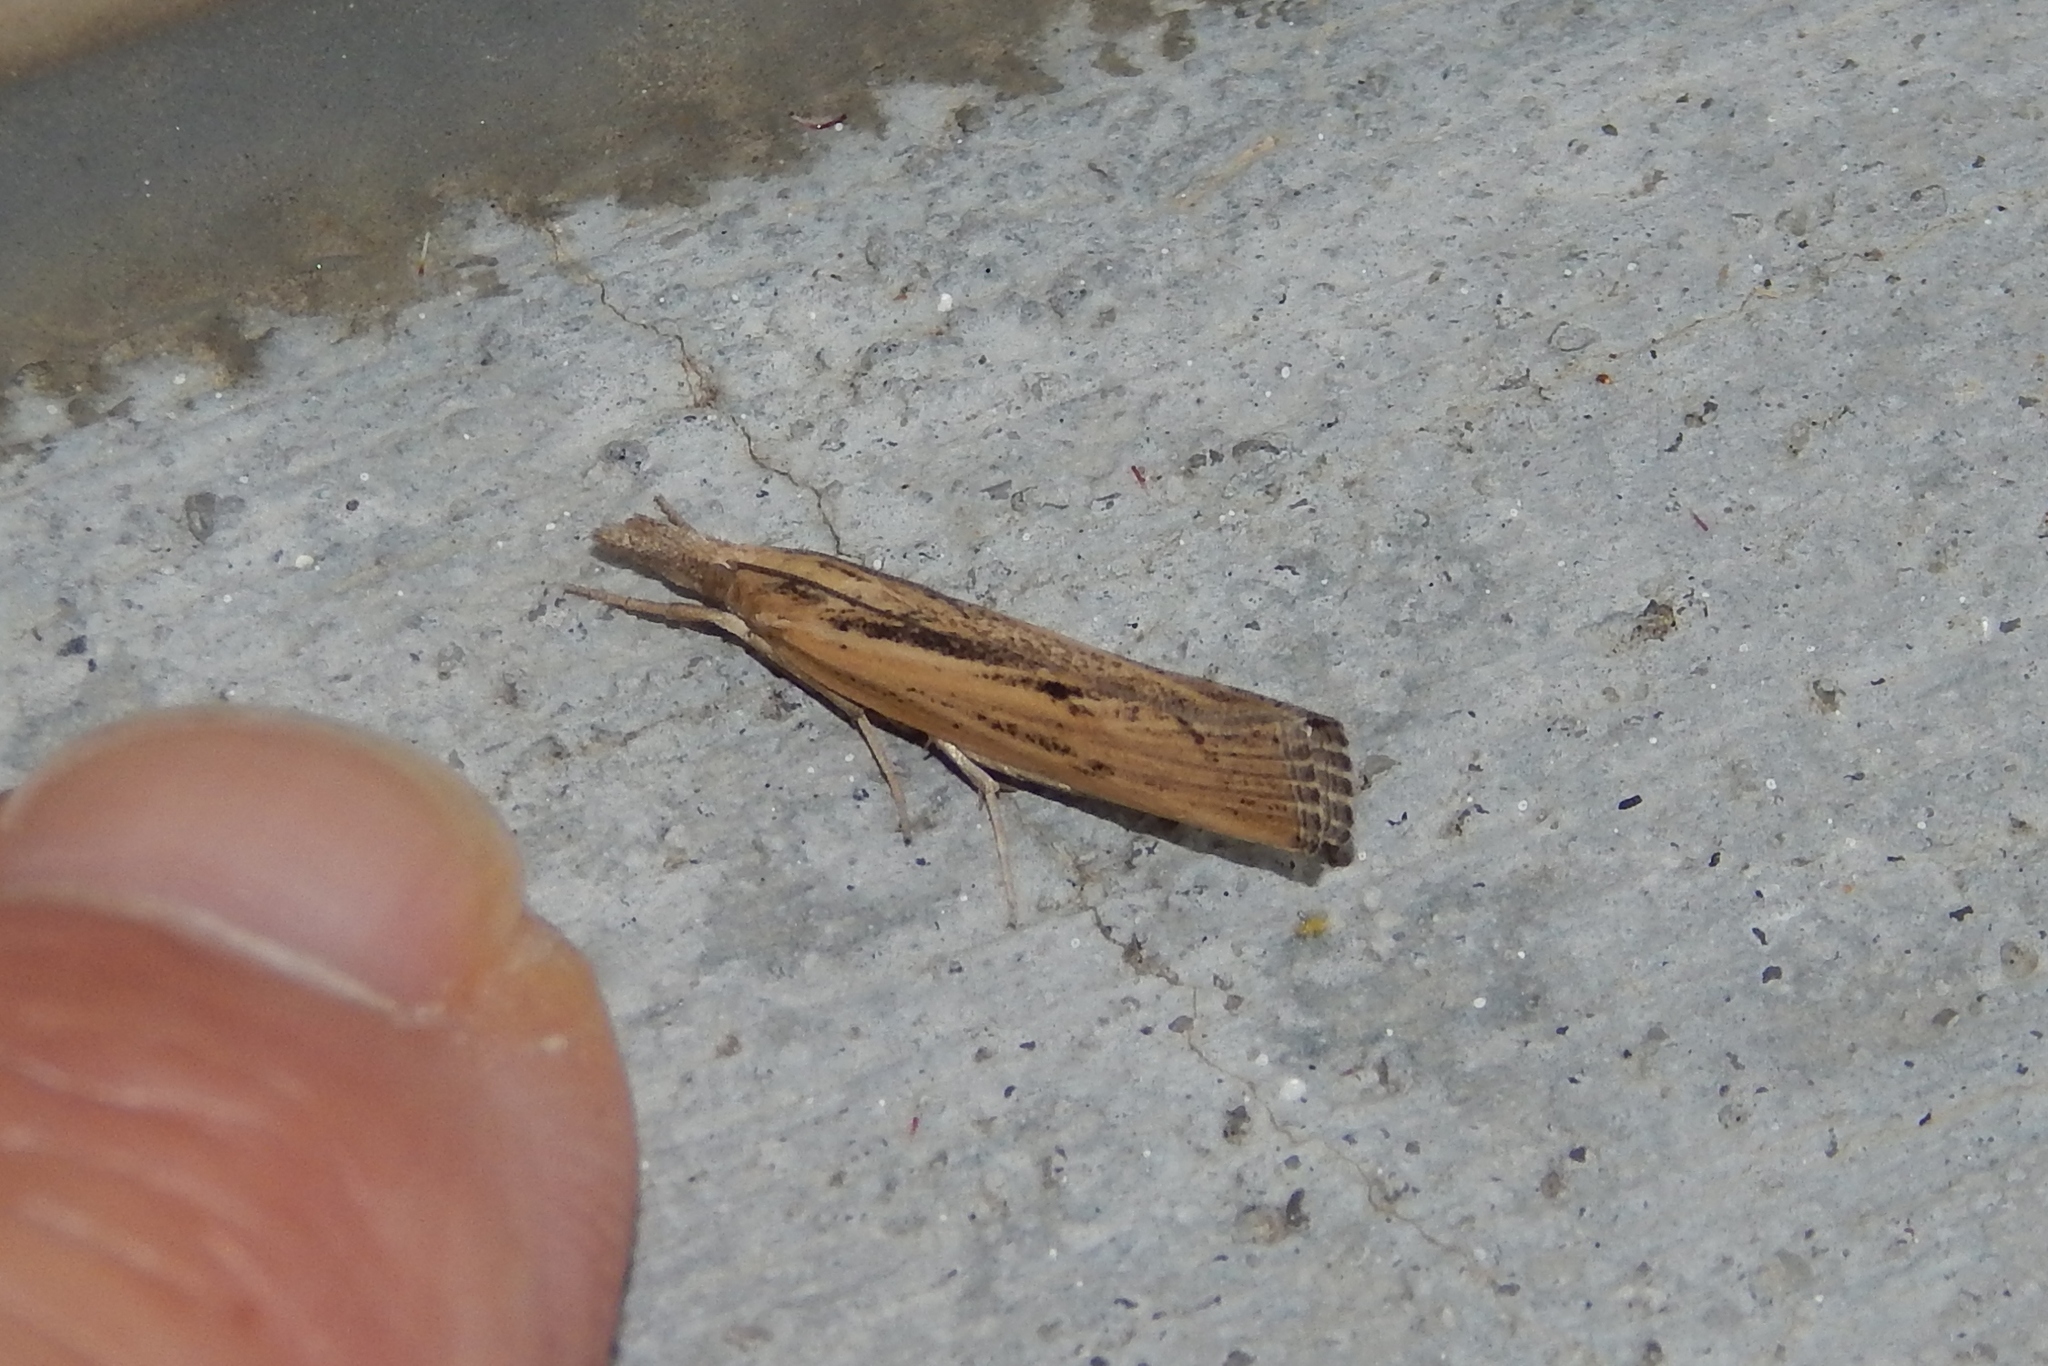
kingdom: Animalia
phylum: Arthropoda
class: Insecta
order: Lepidoptera
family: Crambidae
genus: Pediasia
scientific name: Pediasia trisecta
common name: Sod webworm moth
